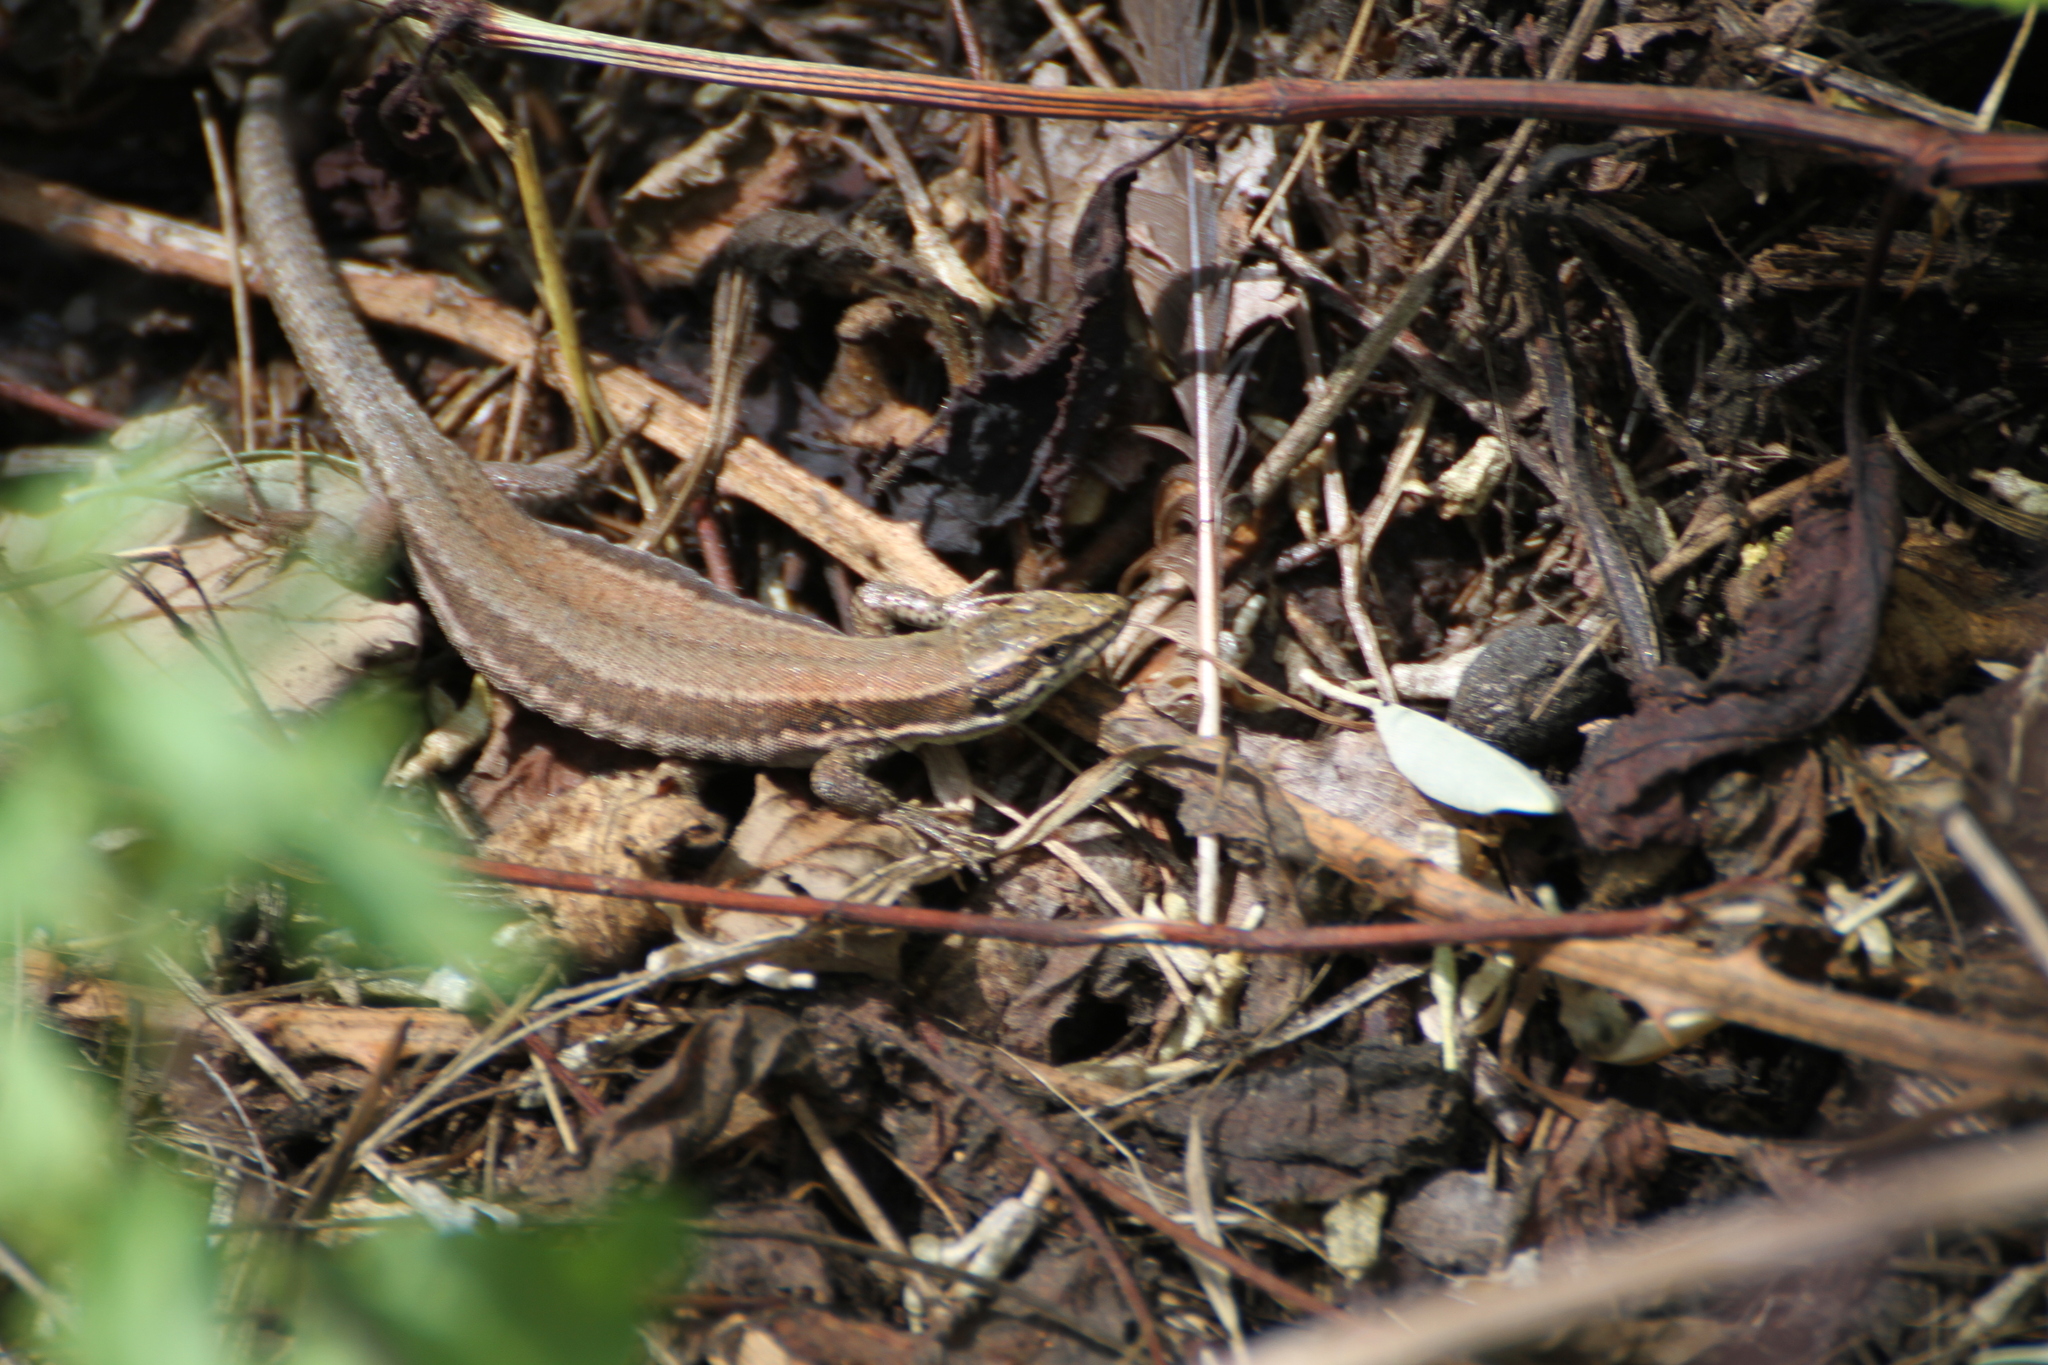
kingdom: Animalia
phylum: Chordata
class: Squamata
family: Lacertidae
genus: Podarcis
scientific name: Podarcis muralis
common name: Common wall lizard
